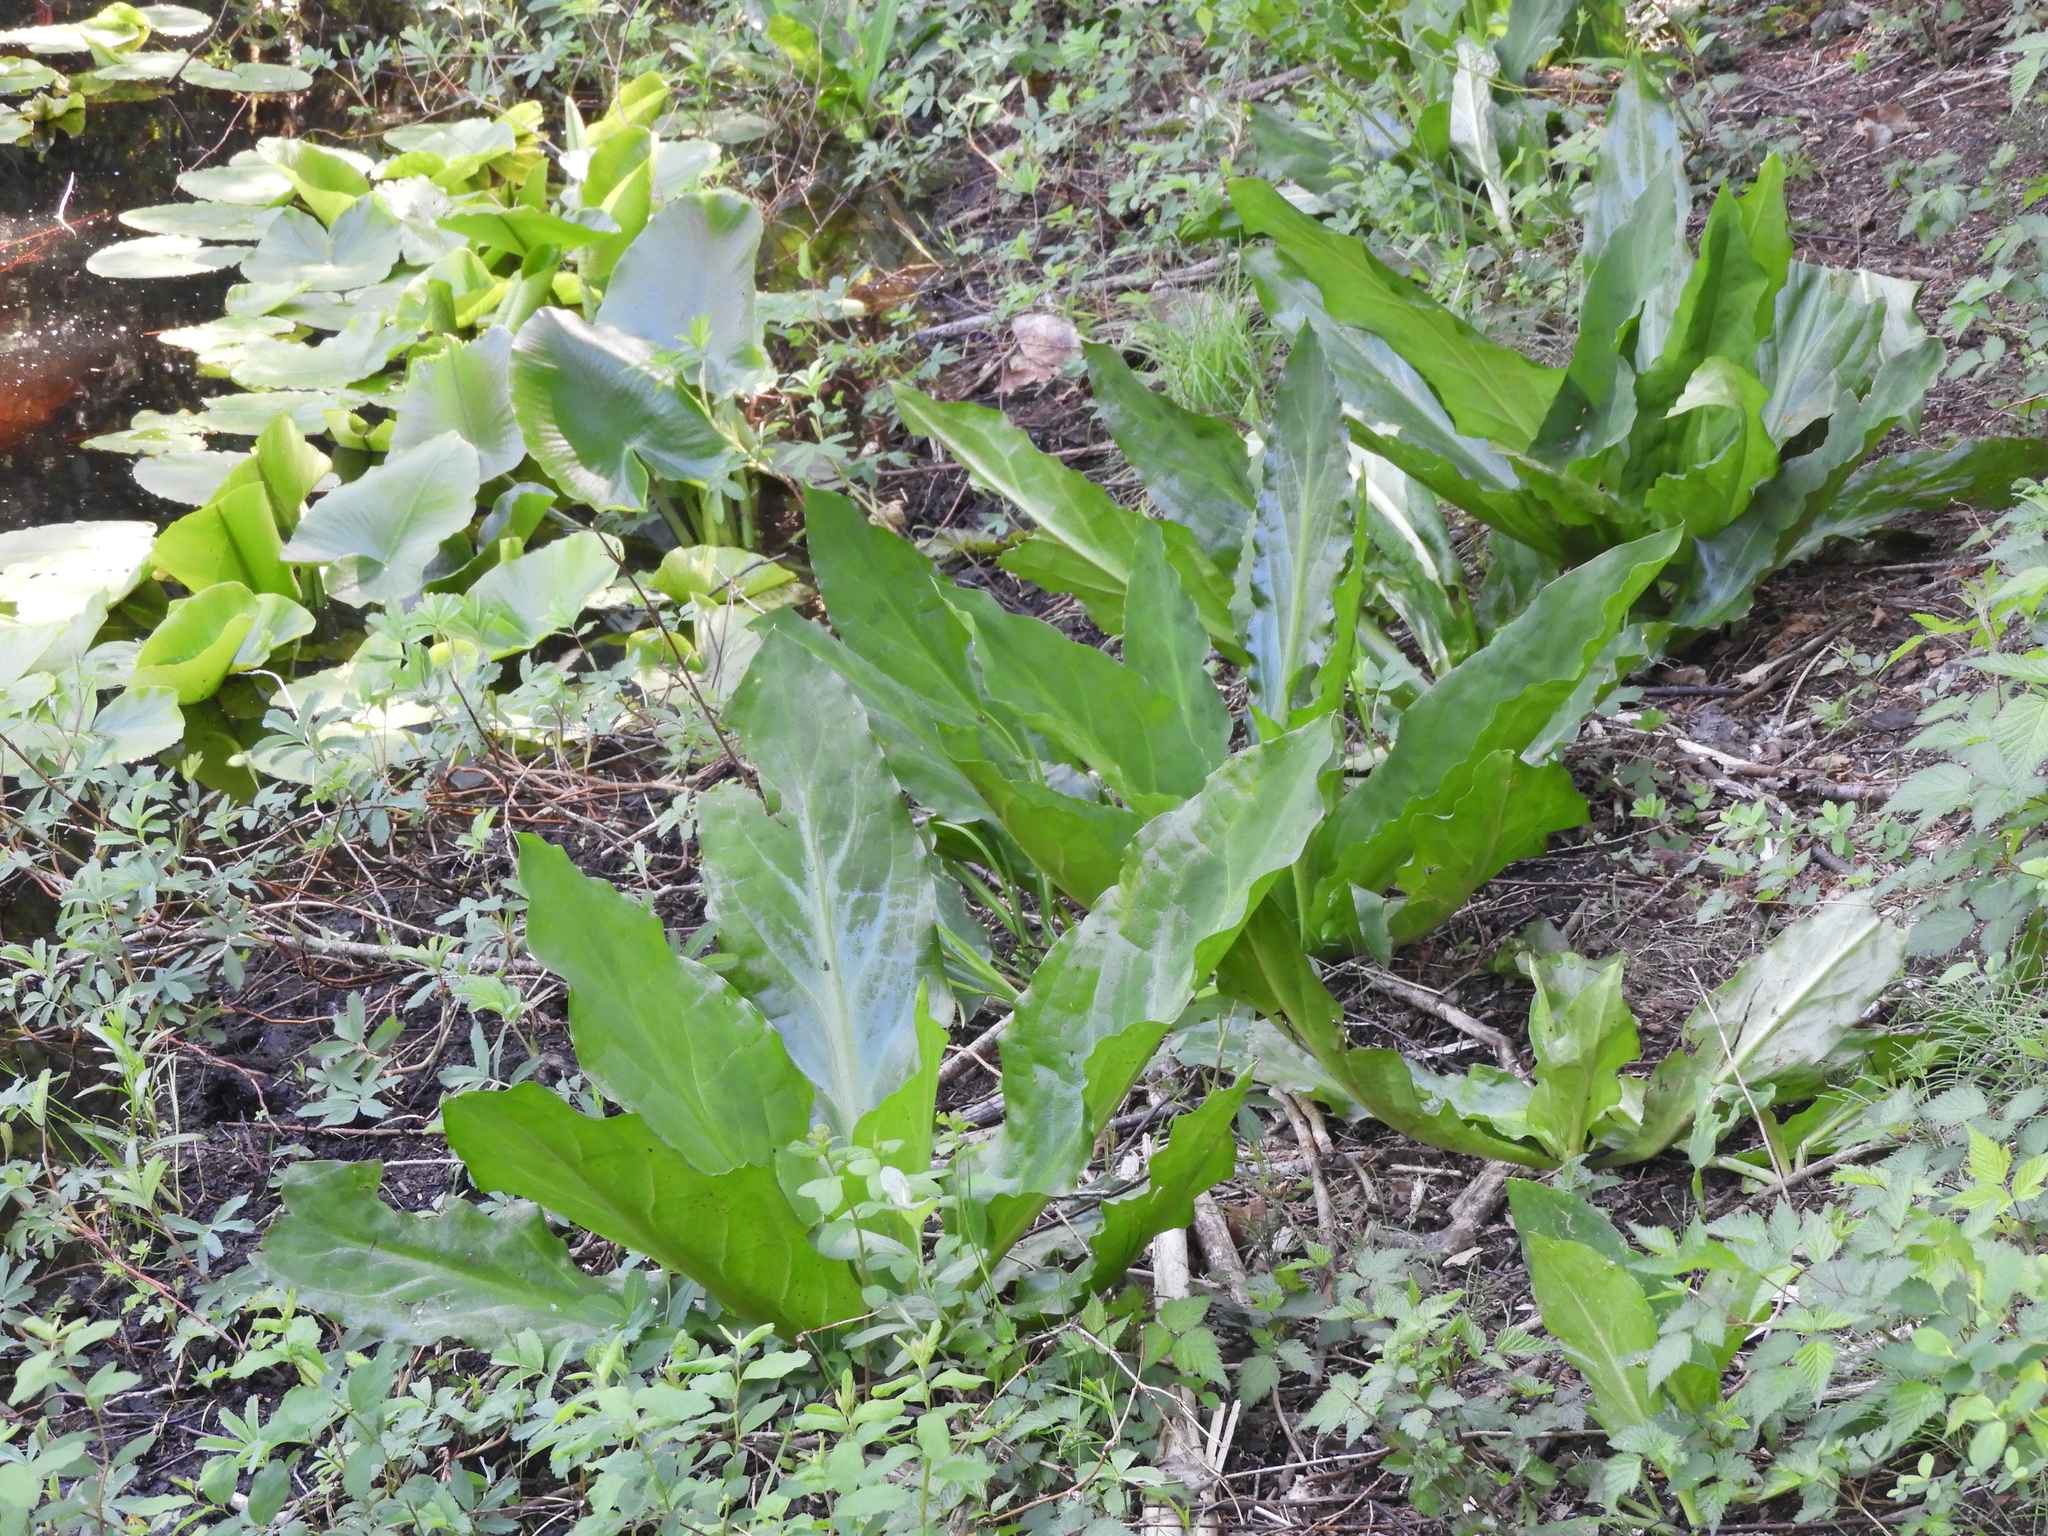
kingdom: Plantae
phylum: Tracheophyta
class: Liliopsida
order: Alismatales
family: Araceae
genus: Lysichiton
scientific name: Lysichiton americanus
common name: American skunk cabbage
